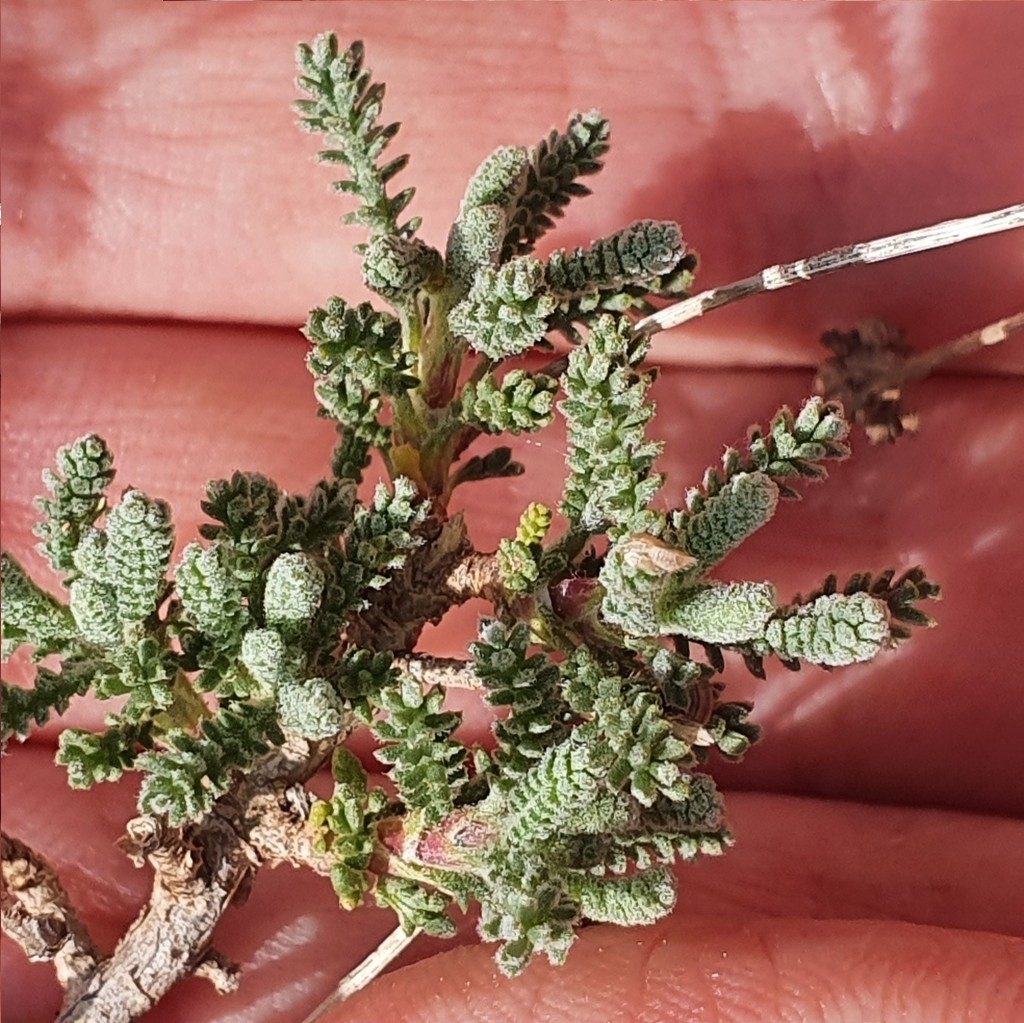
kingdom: Plantae
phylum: Tracheophyta
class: Magnoliopsida
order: Asterales
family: Asteraceae
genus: Santolina
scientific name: Santolina africana
